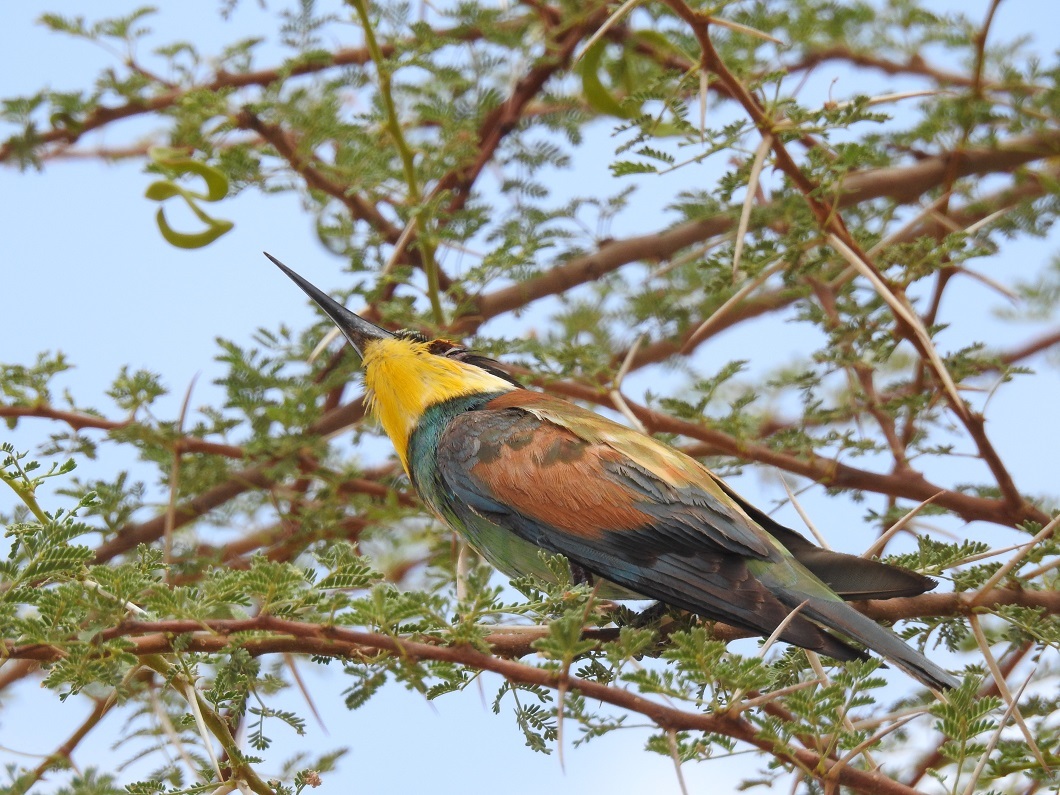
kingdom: Animalia
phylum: Chordata
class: Aves
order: Coraciiformes
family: Meropidae
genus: Merops
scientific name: Merops apiaster
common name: European bee-eater
